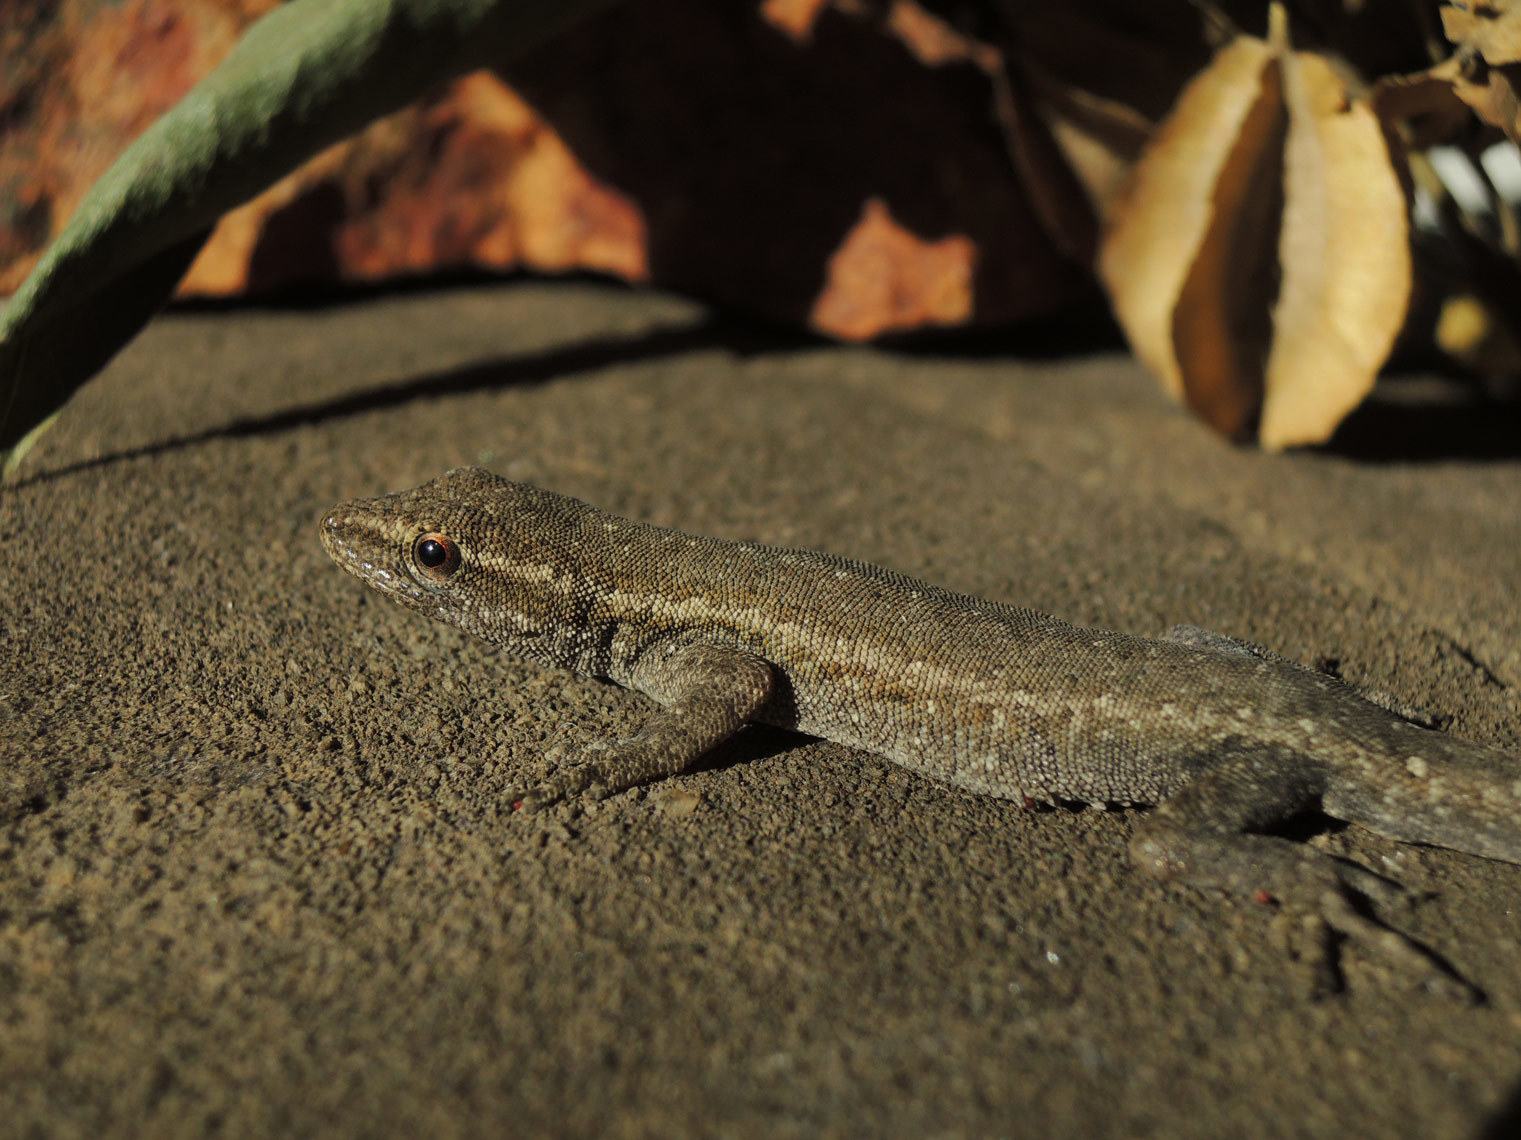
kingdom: Animalia
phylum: Chordata
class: Squamata
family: Gekkonidae
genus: Lygodactylus
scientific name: Lygodactylus capensis
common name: Cape dwarf gecko
